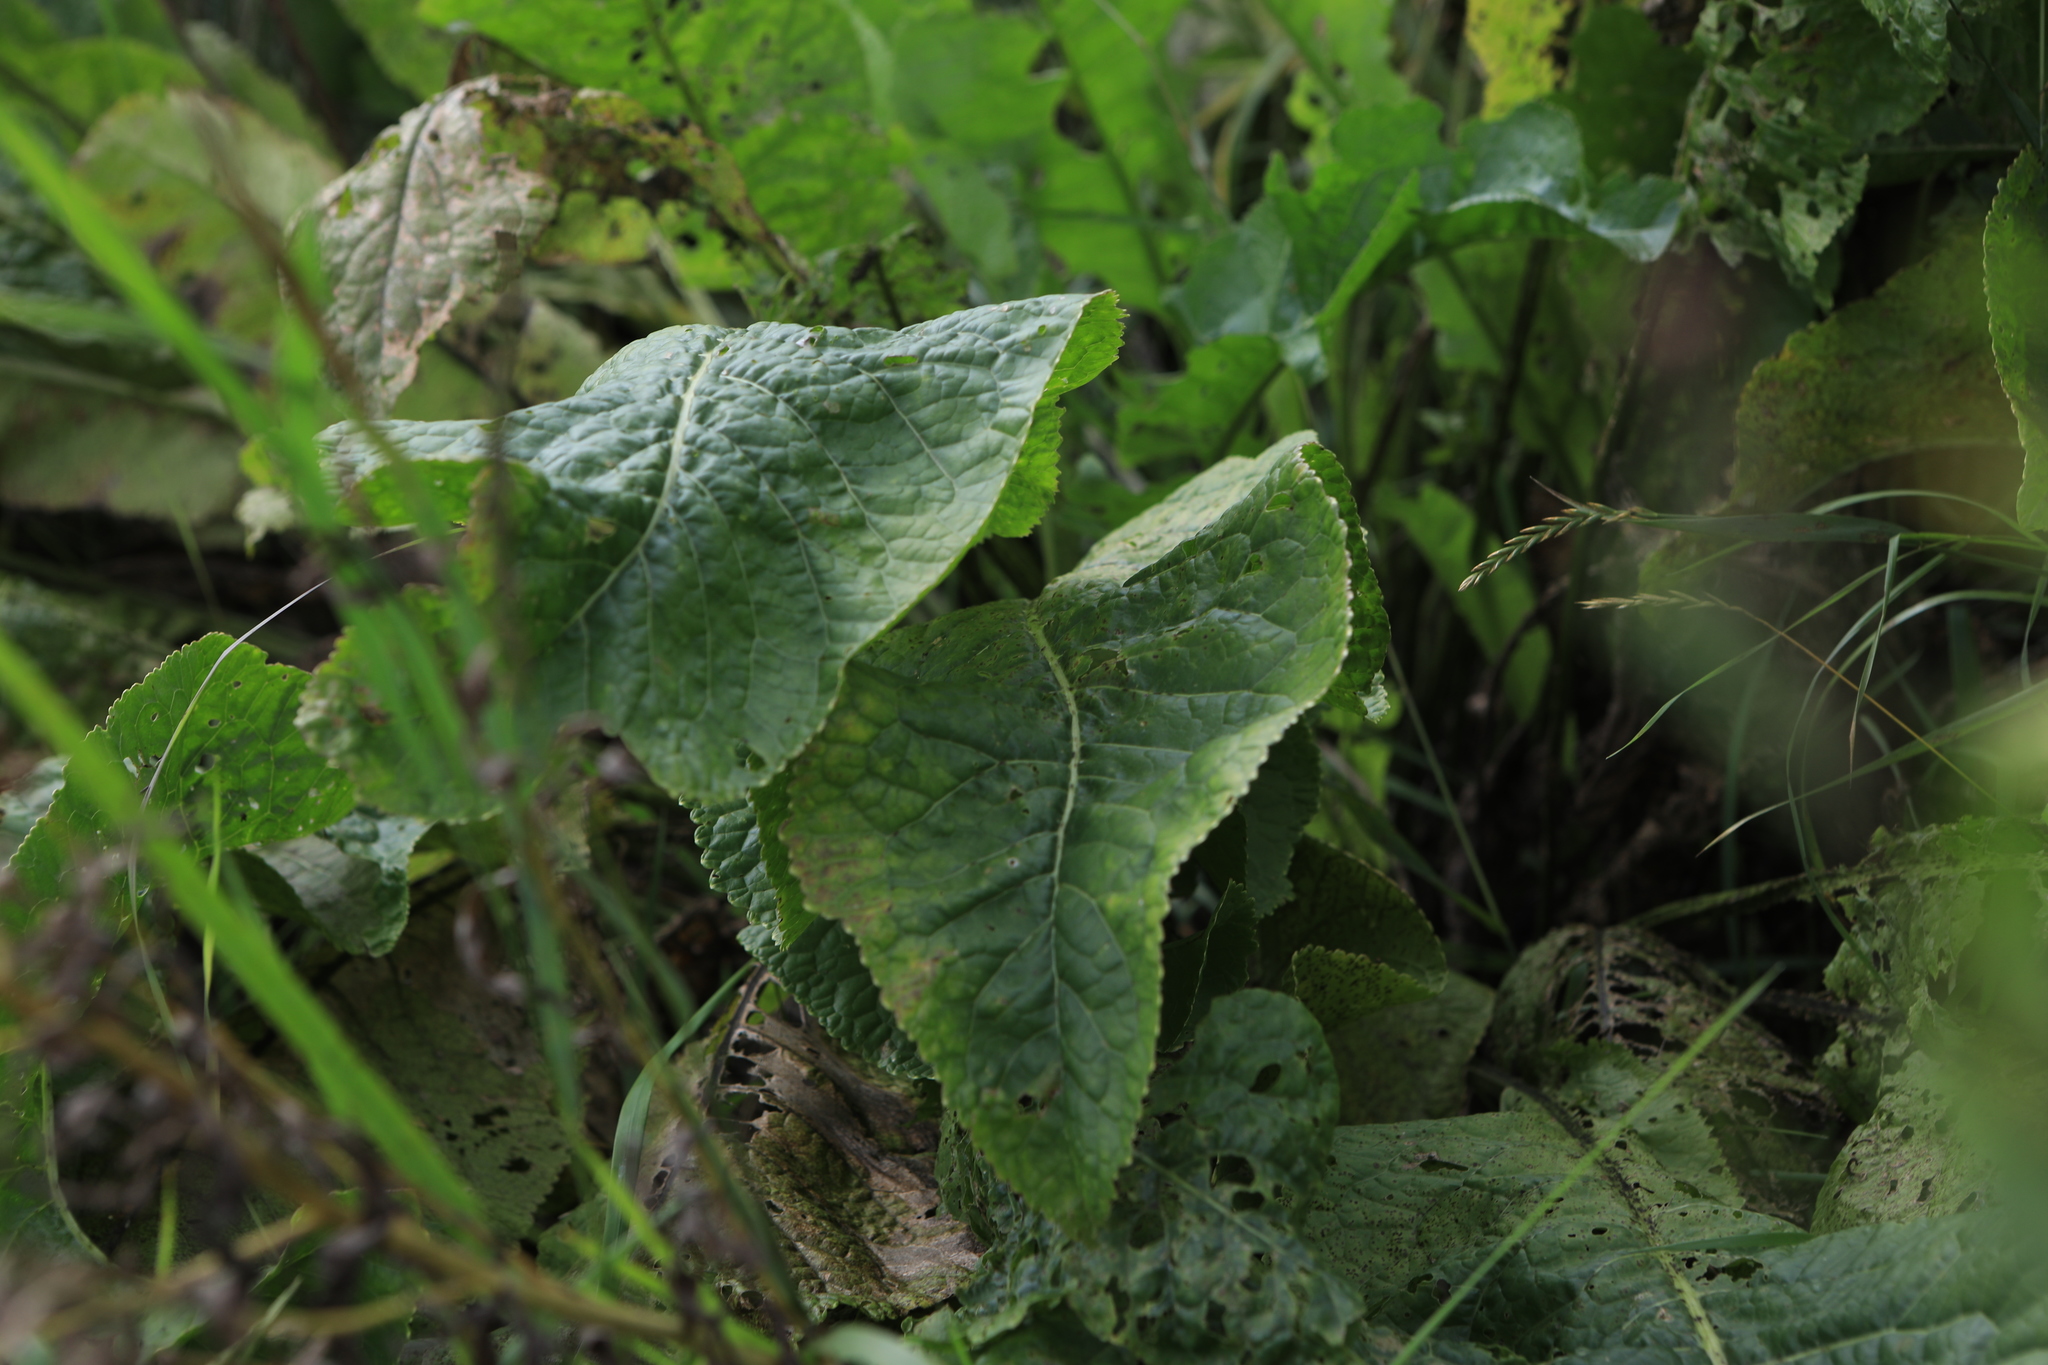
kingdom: Plantae
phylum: Tracheophyta
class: Magnoliopsida
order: Brassicales
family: Brassicaceae
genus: Armoracia
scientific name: Armoracia rusticana
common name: Horseradish
